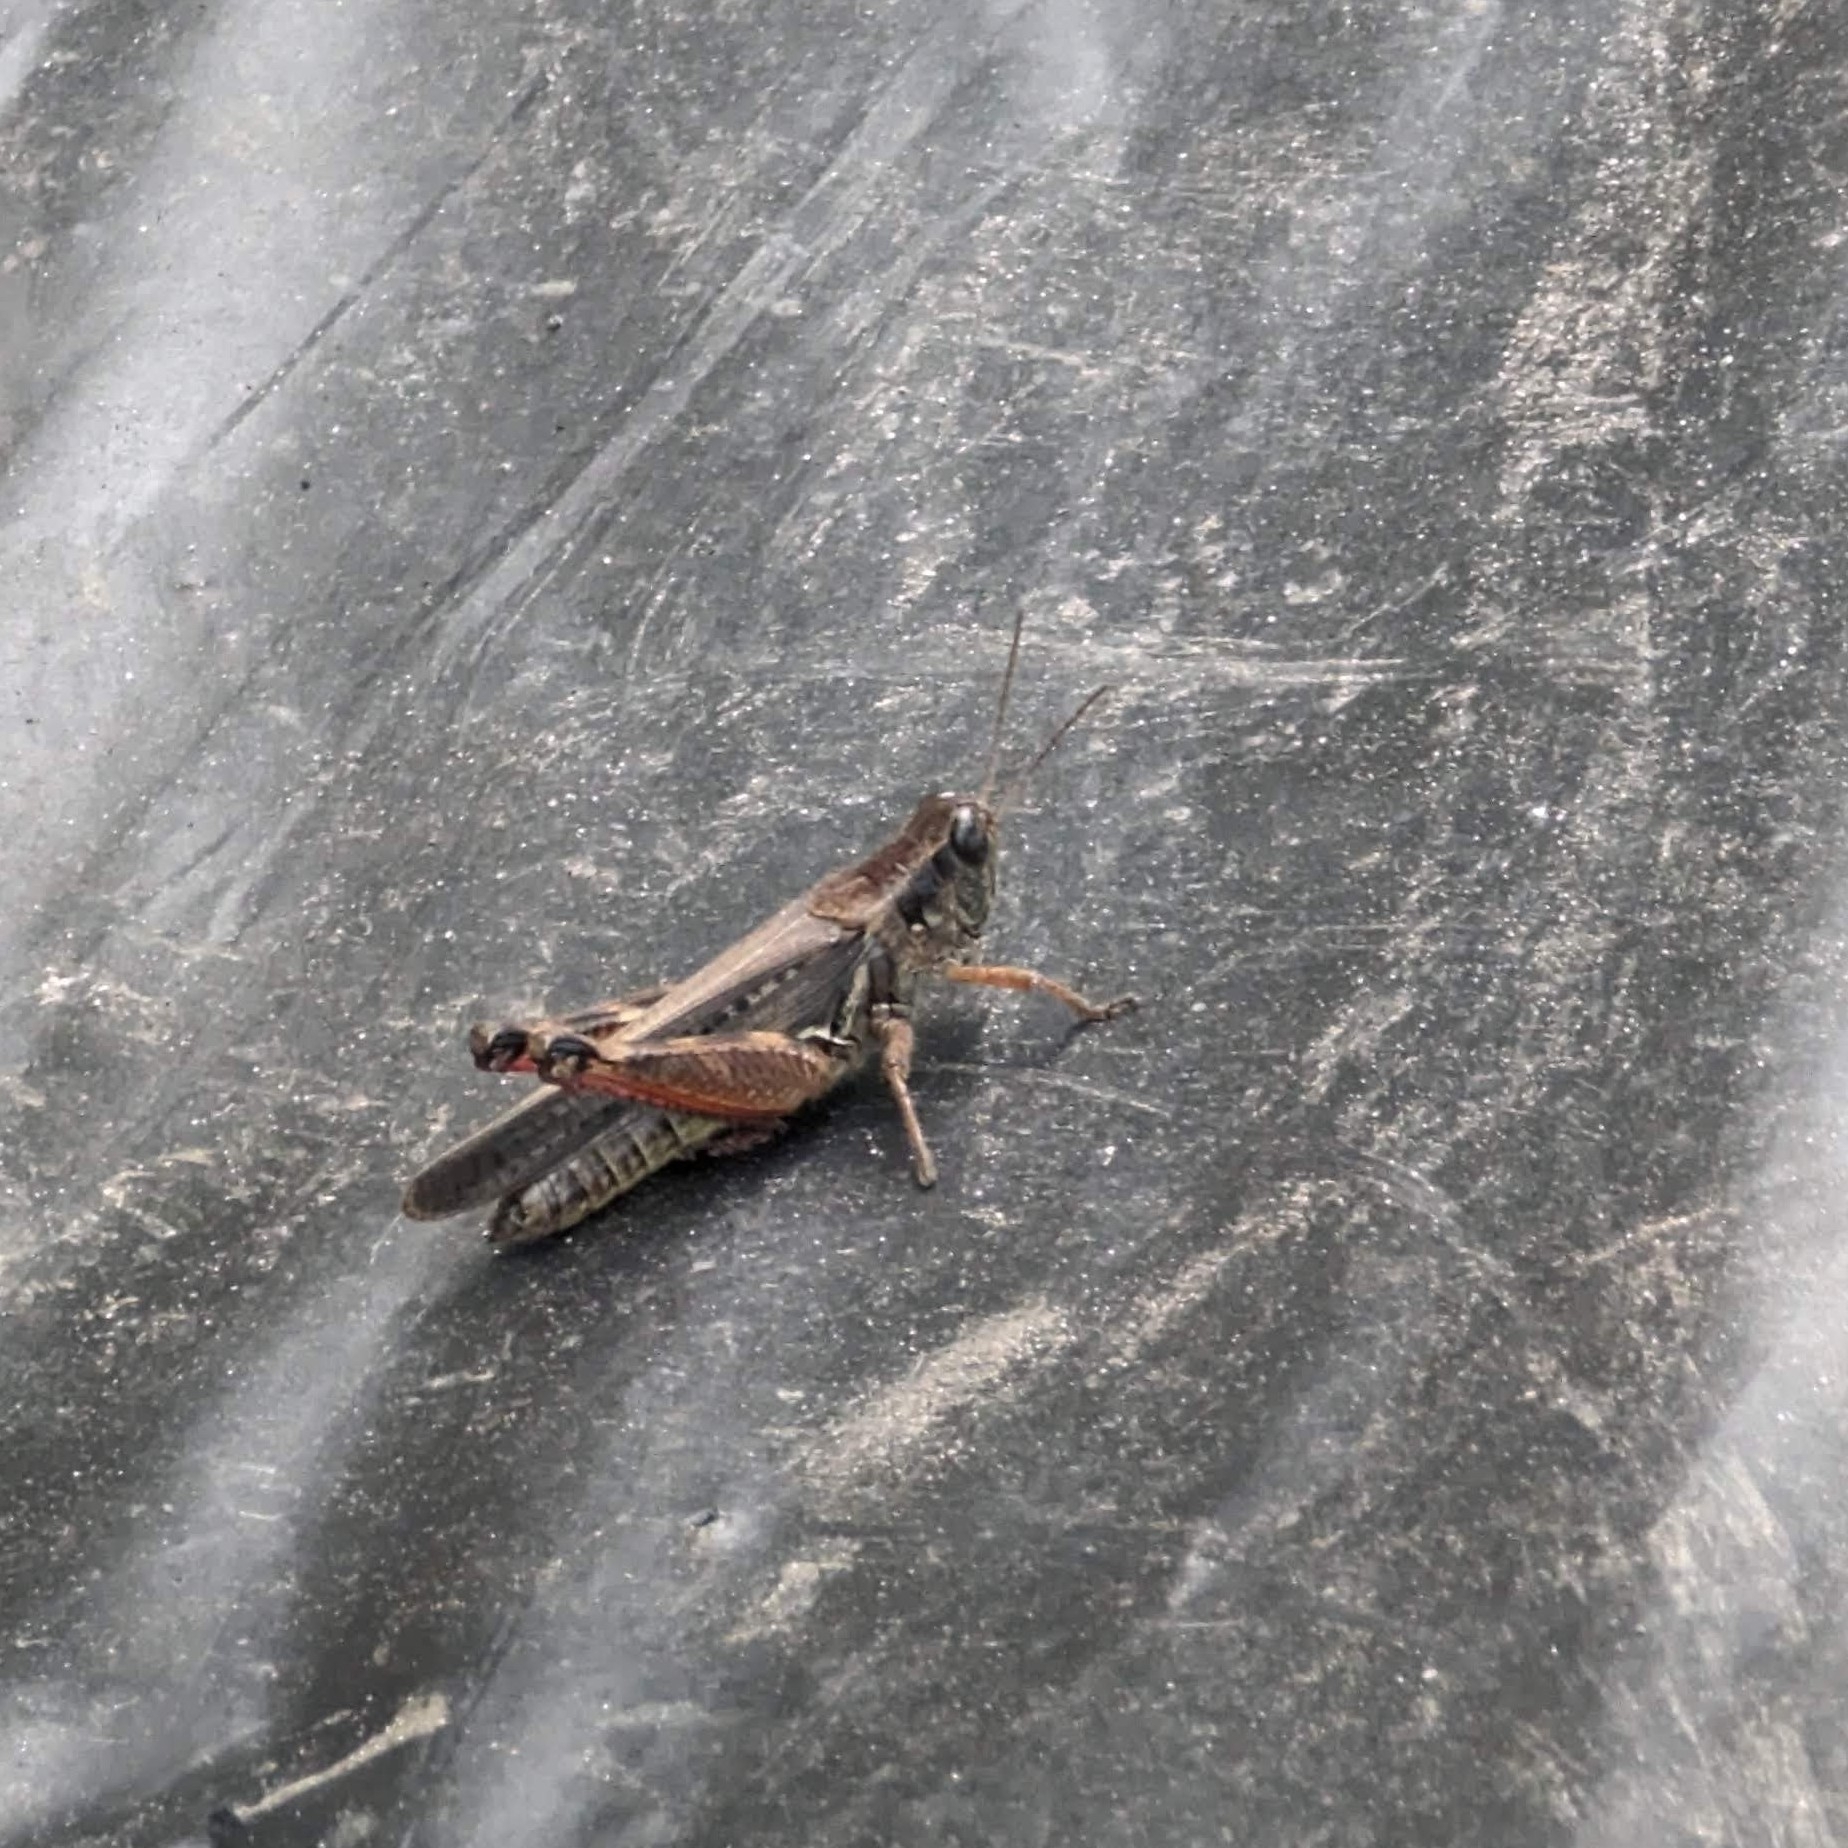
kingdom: Animalia
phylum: Arthropoda
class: Insecta
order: Orthoptera
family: Acrididae
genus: Melanoplus
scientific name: Melanoplus femurrubrum
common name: Red-legged grasshopper
